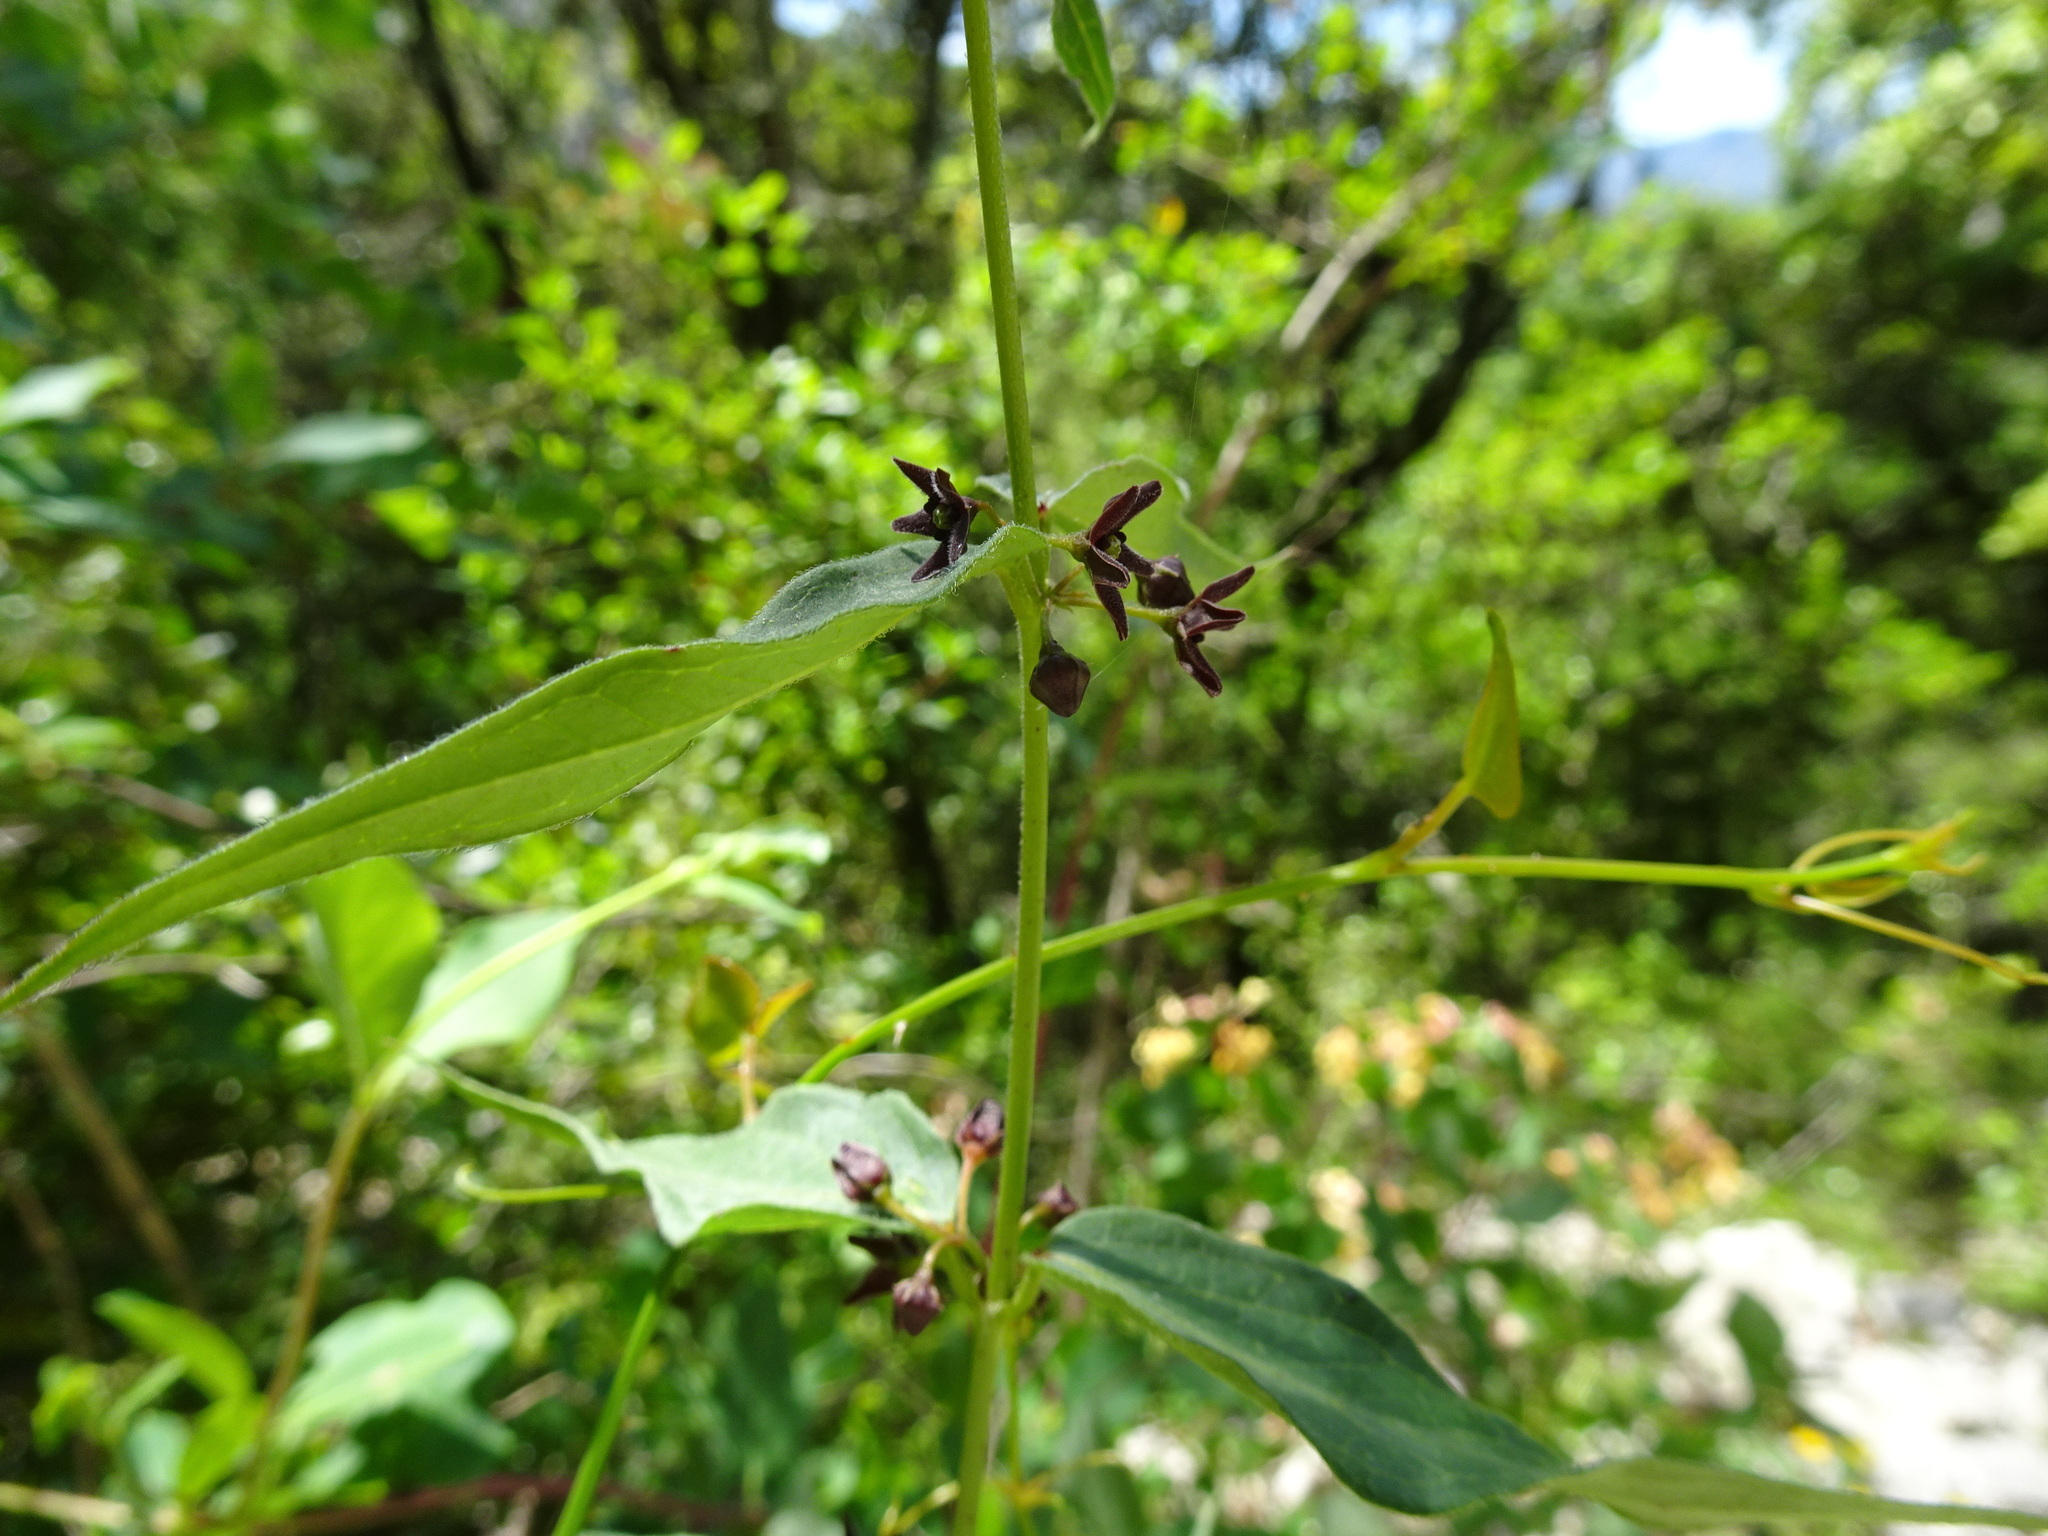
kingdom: Plantae
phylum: Tracheophyta
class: Magnoliopsida
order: Gentianales
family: Apocynaceae
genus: Vincetoxicum
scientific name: Vincetoxicum nigrum
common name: Black swallow-wort
